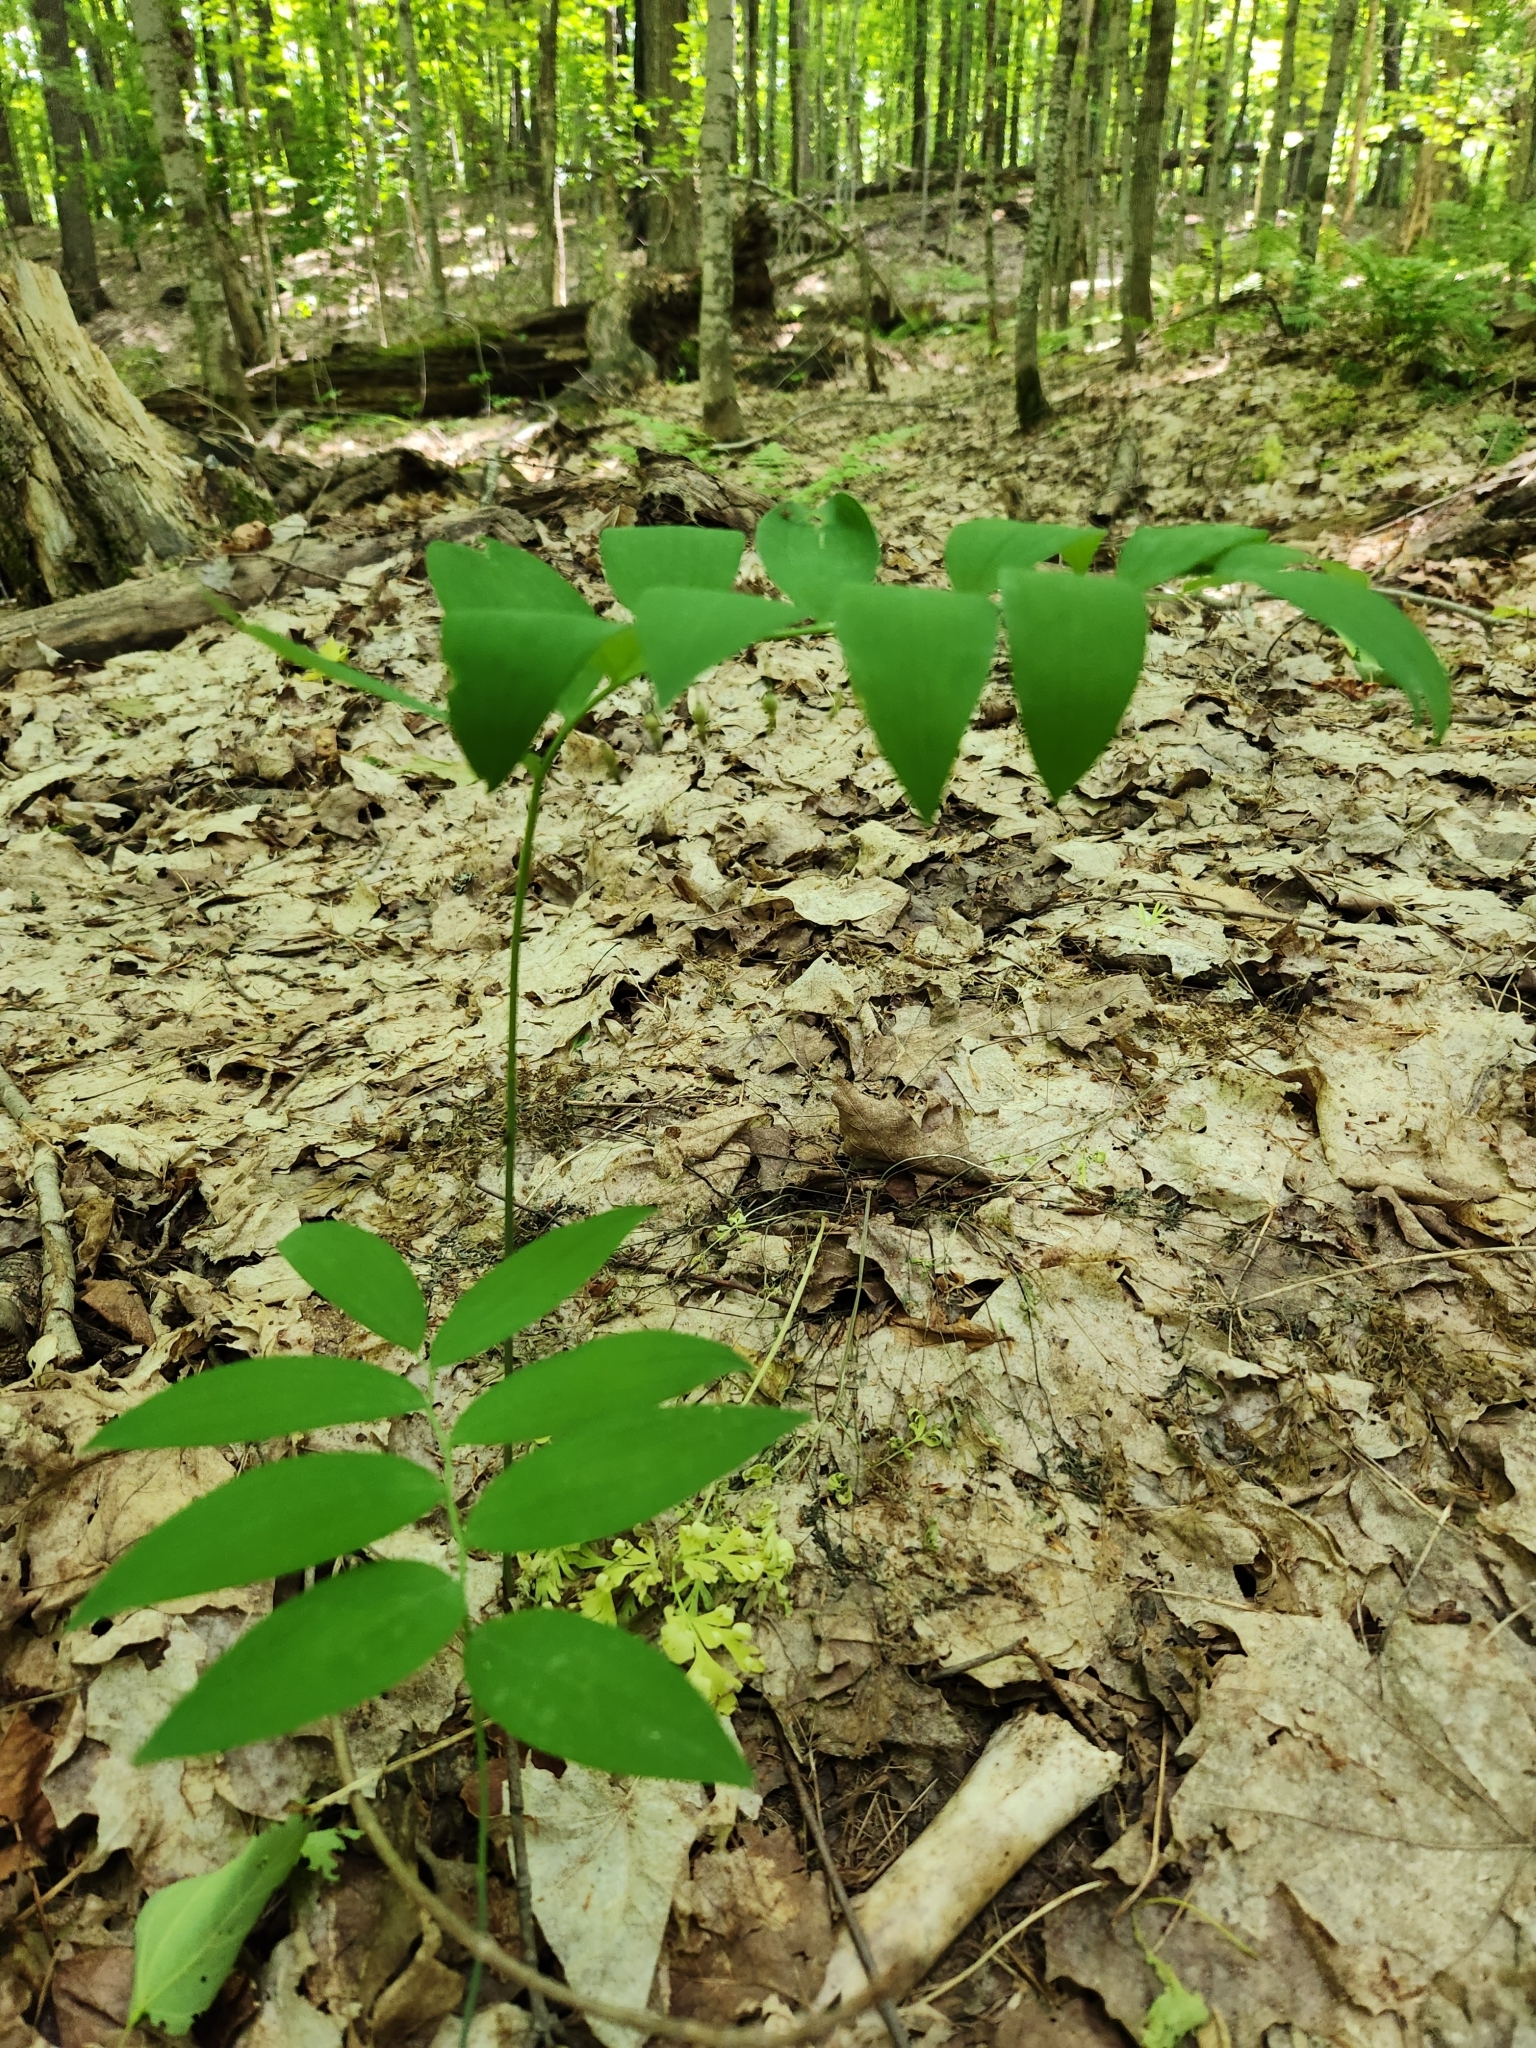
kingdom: Plantae
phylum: Tracheophyta
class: Liliopsida
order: Asparagales
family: Asparagaceae
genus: Polygonatum
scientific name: Polygonatum pubescens
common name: Downy solomon's seal
